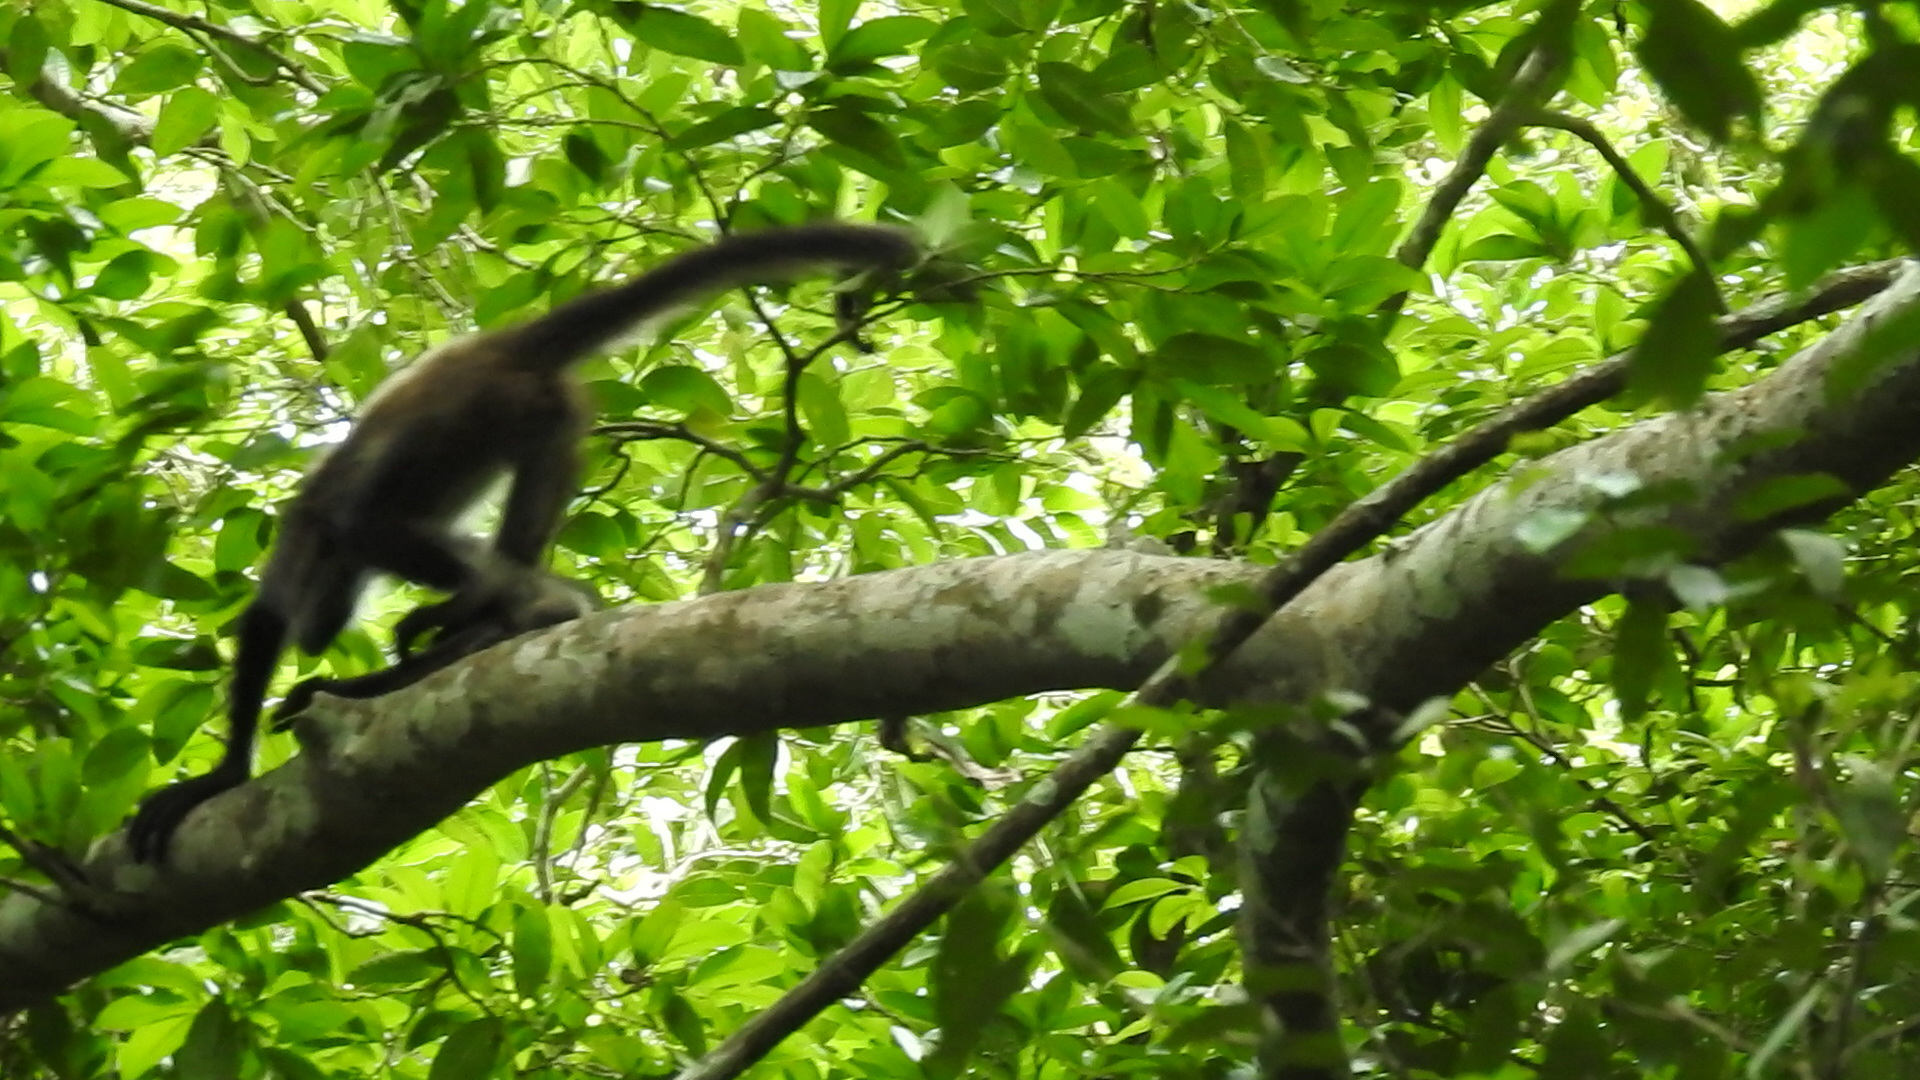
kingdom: Animalia
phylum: Chordata
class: Mammalia
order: Primates
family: Atelidae
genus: Ateles
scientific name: Ateles geoffroyi
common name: Black-handed spider monkey
